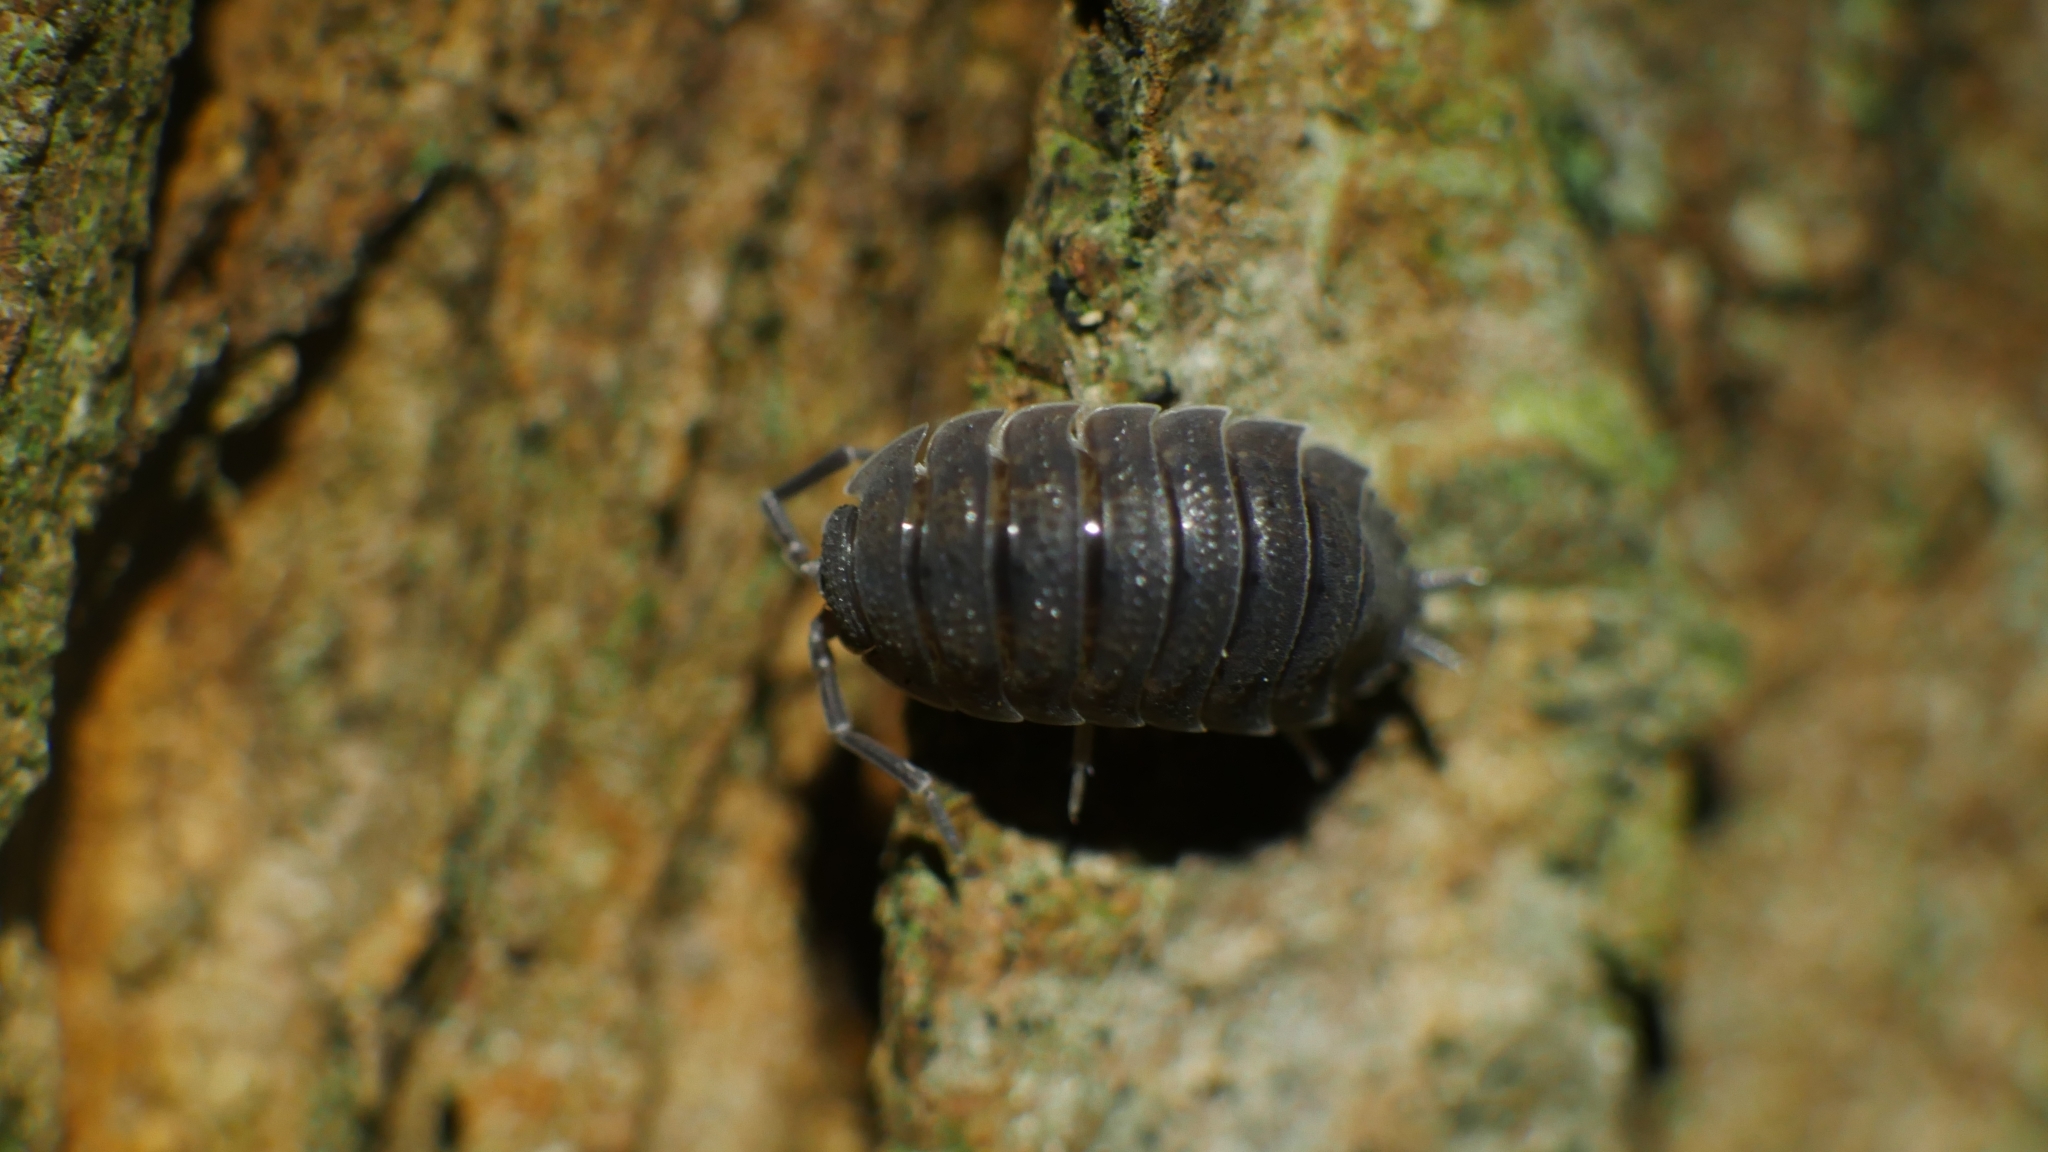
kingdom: Animalia
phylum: Arthropoda
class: Malacostraca
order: Isopoda
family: Porcellionidae
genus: Porcellio
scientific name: Porcellio scaber
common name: Common rough woodlouse
